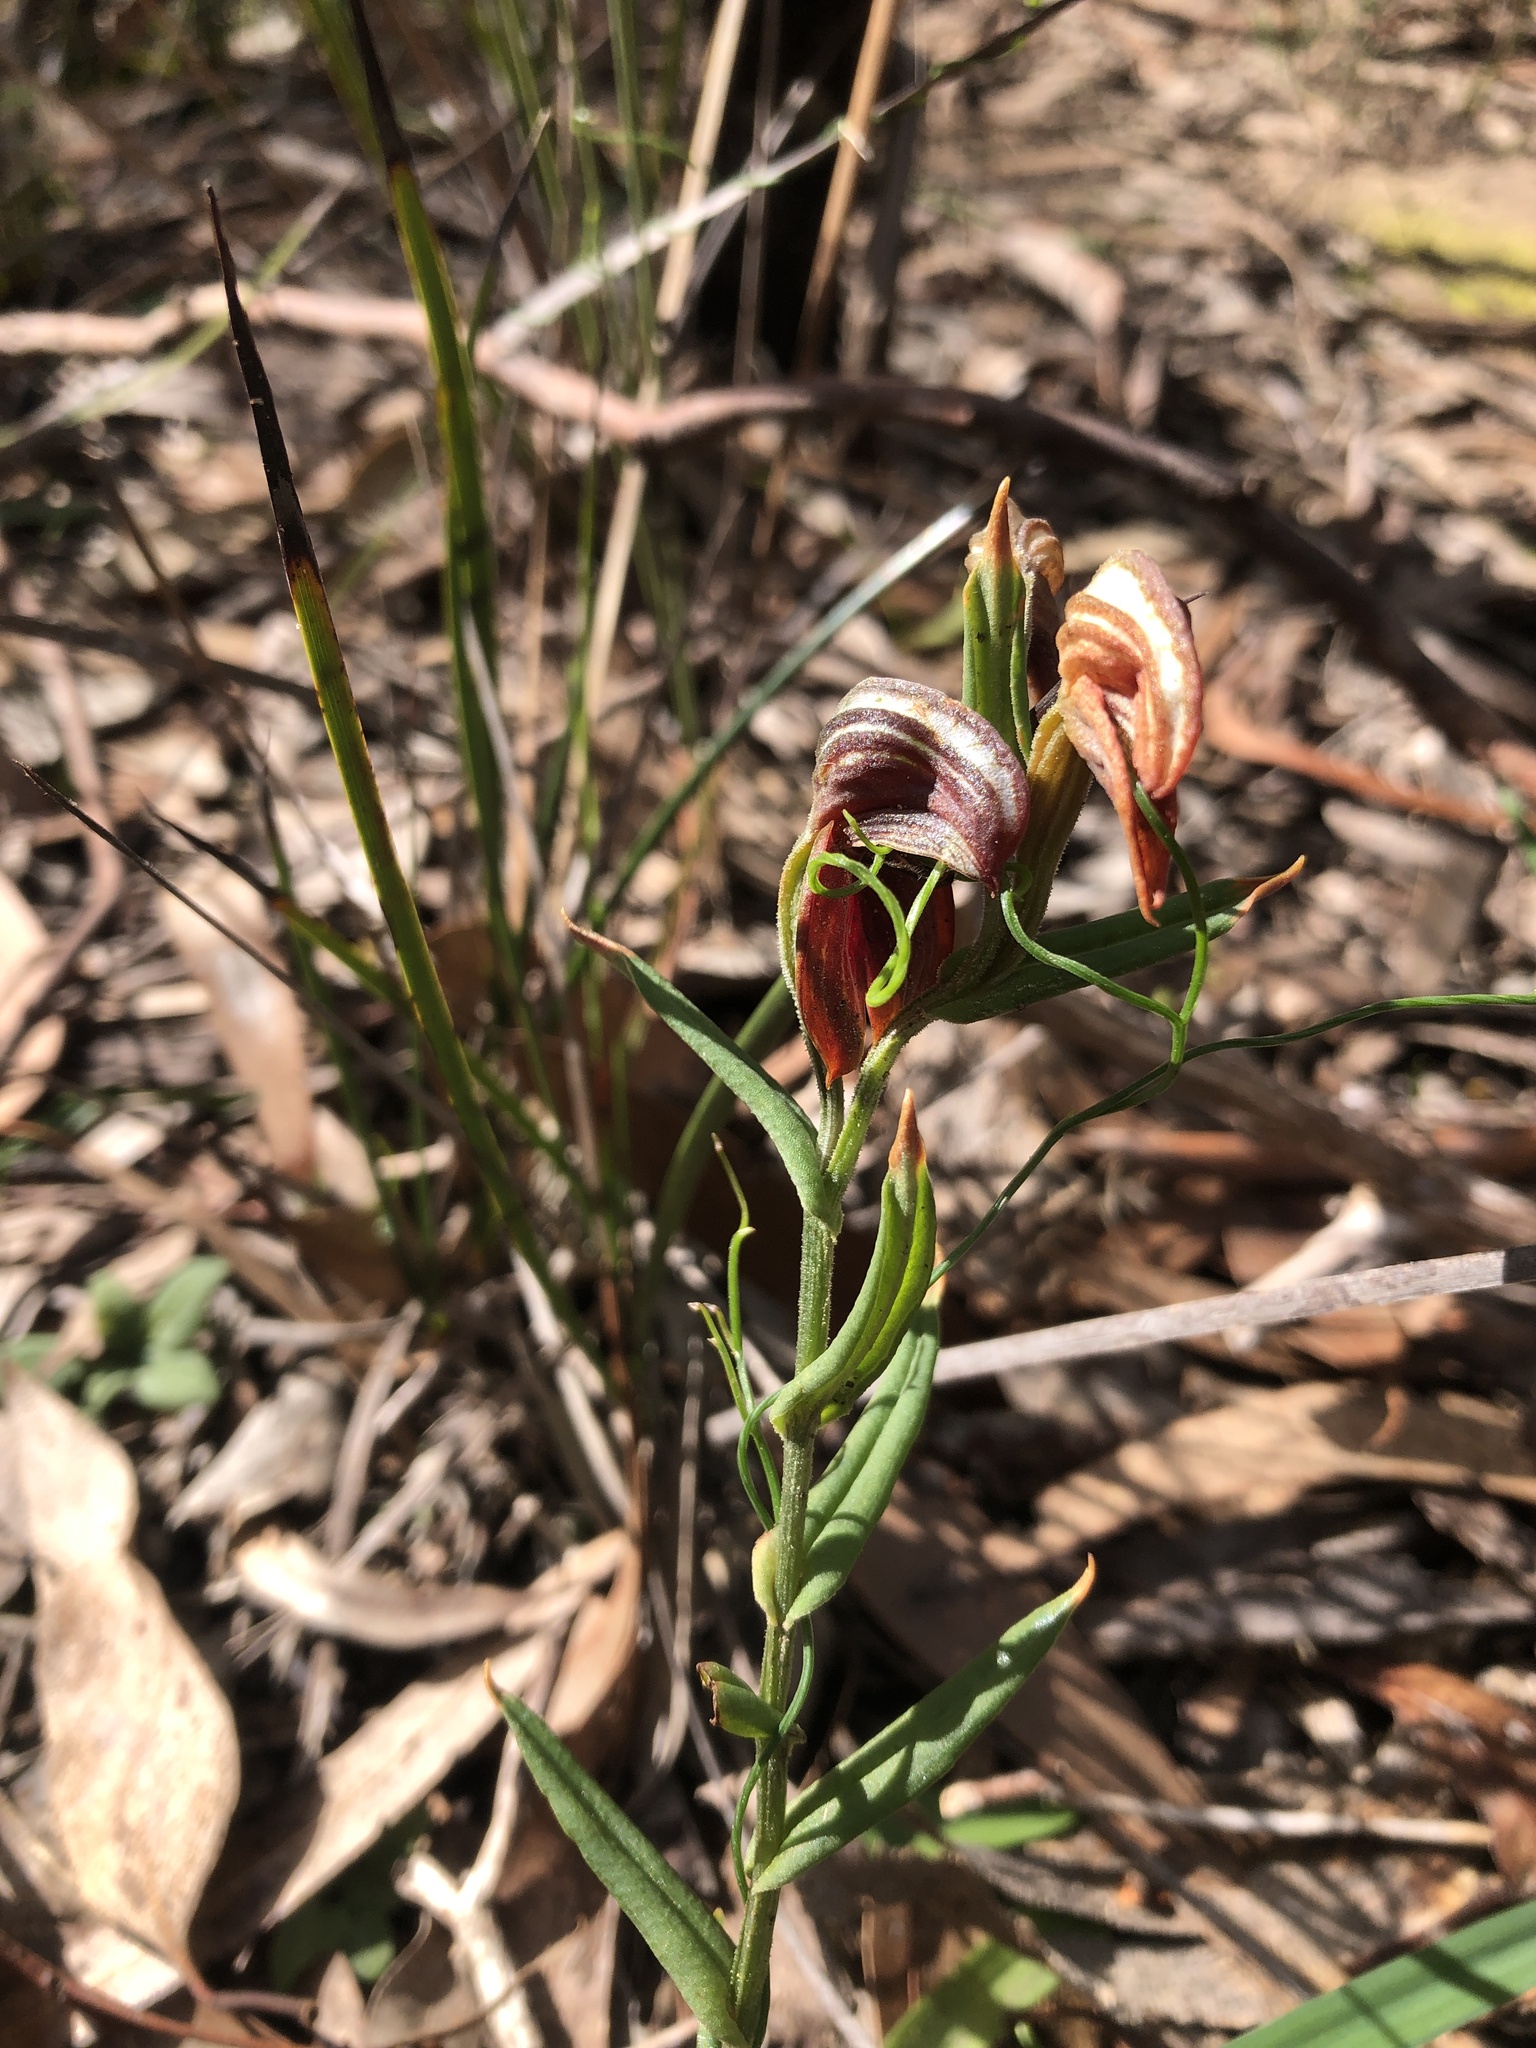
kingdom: Plantae
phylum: Tracheophyta
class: Liliopsida
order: Asparagales
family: Orchidaceae
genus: Pterostylis
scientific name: Pterostylis sanguinea
